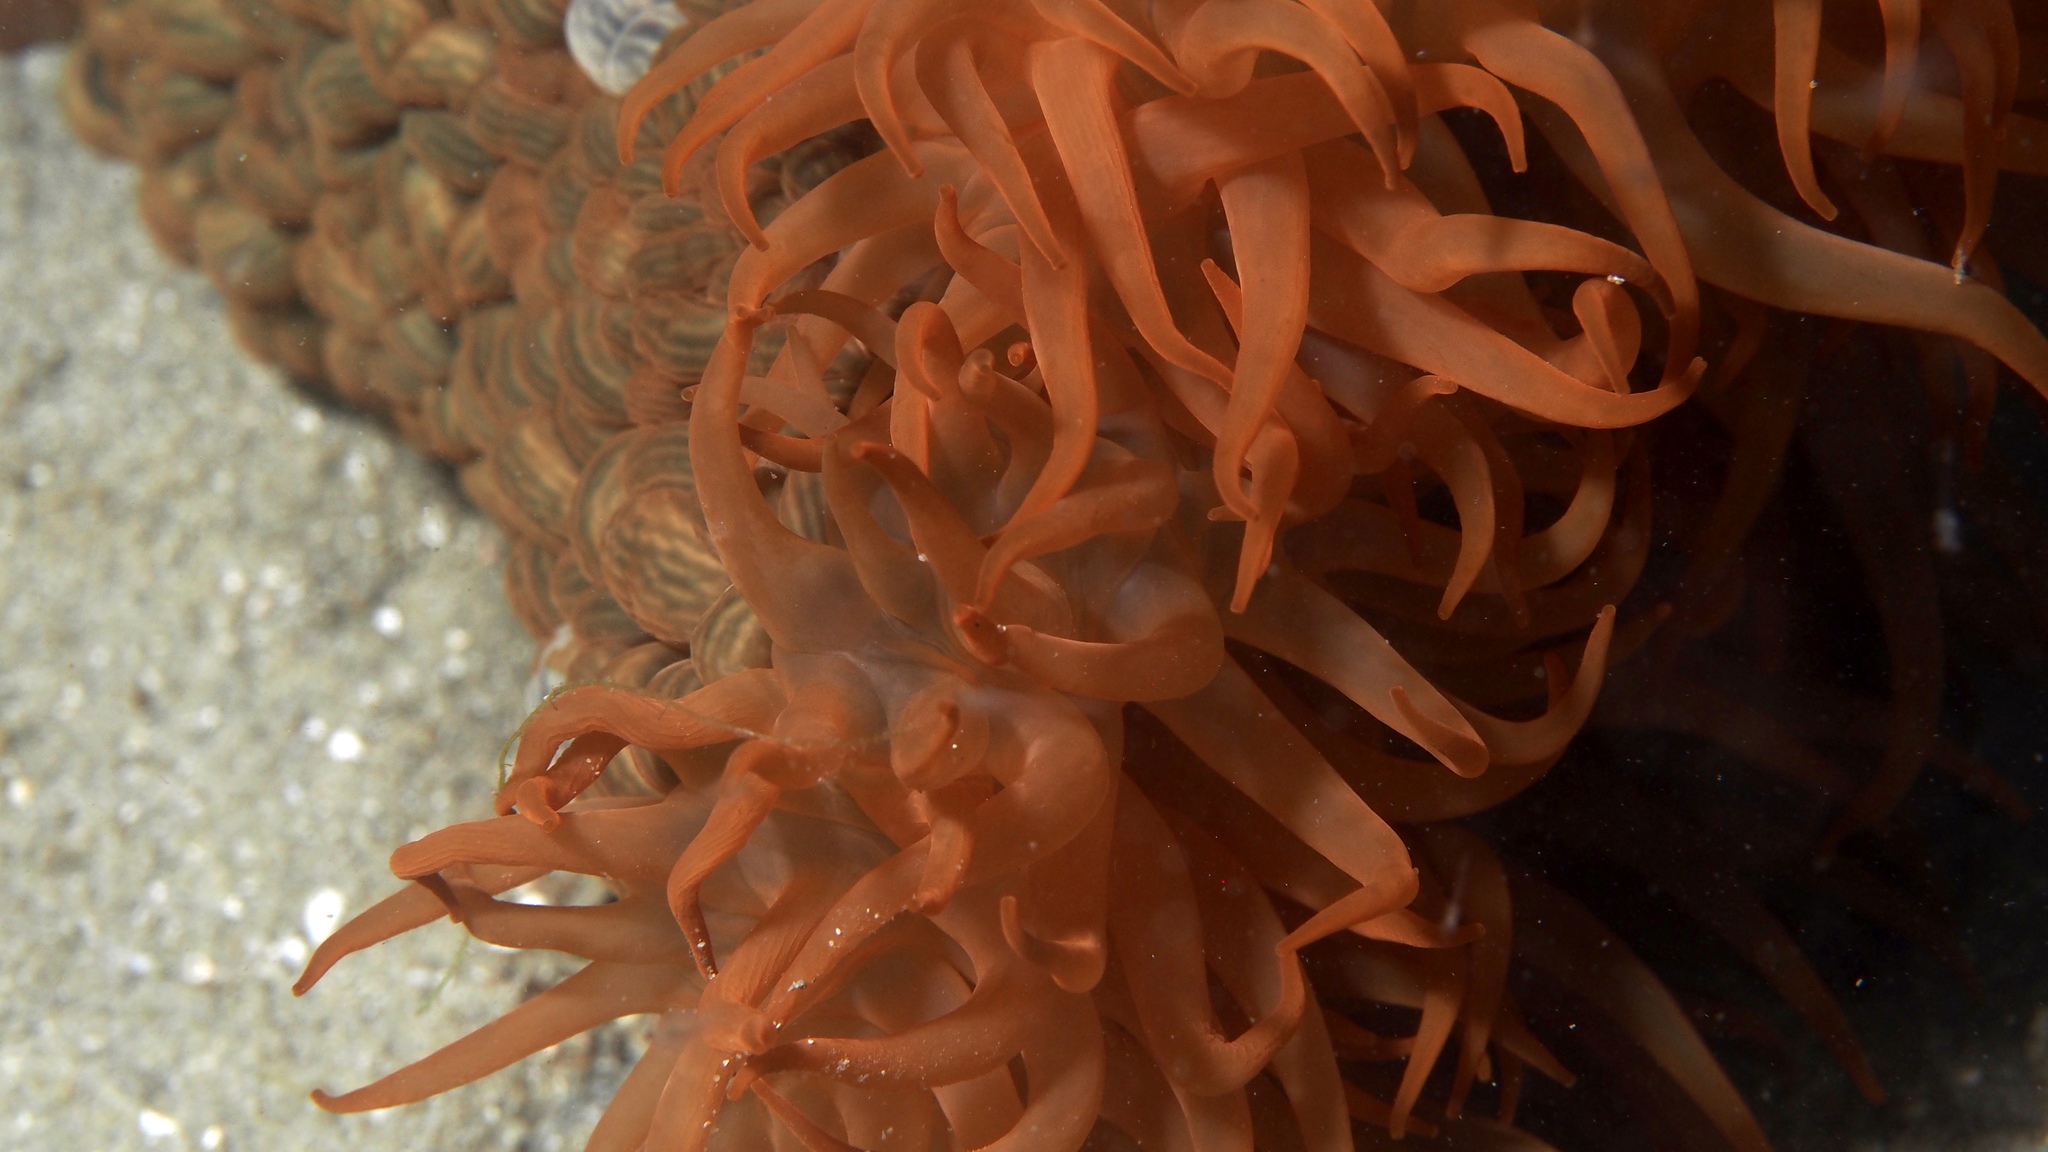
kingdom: Animalia
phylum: Cnidaria
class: Anthozoa
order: Actiniaria
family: Actiniidae
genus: Phlyctenactis
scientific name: Phlyctenactis tuberculosa
